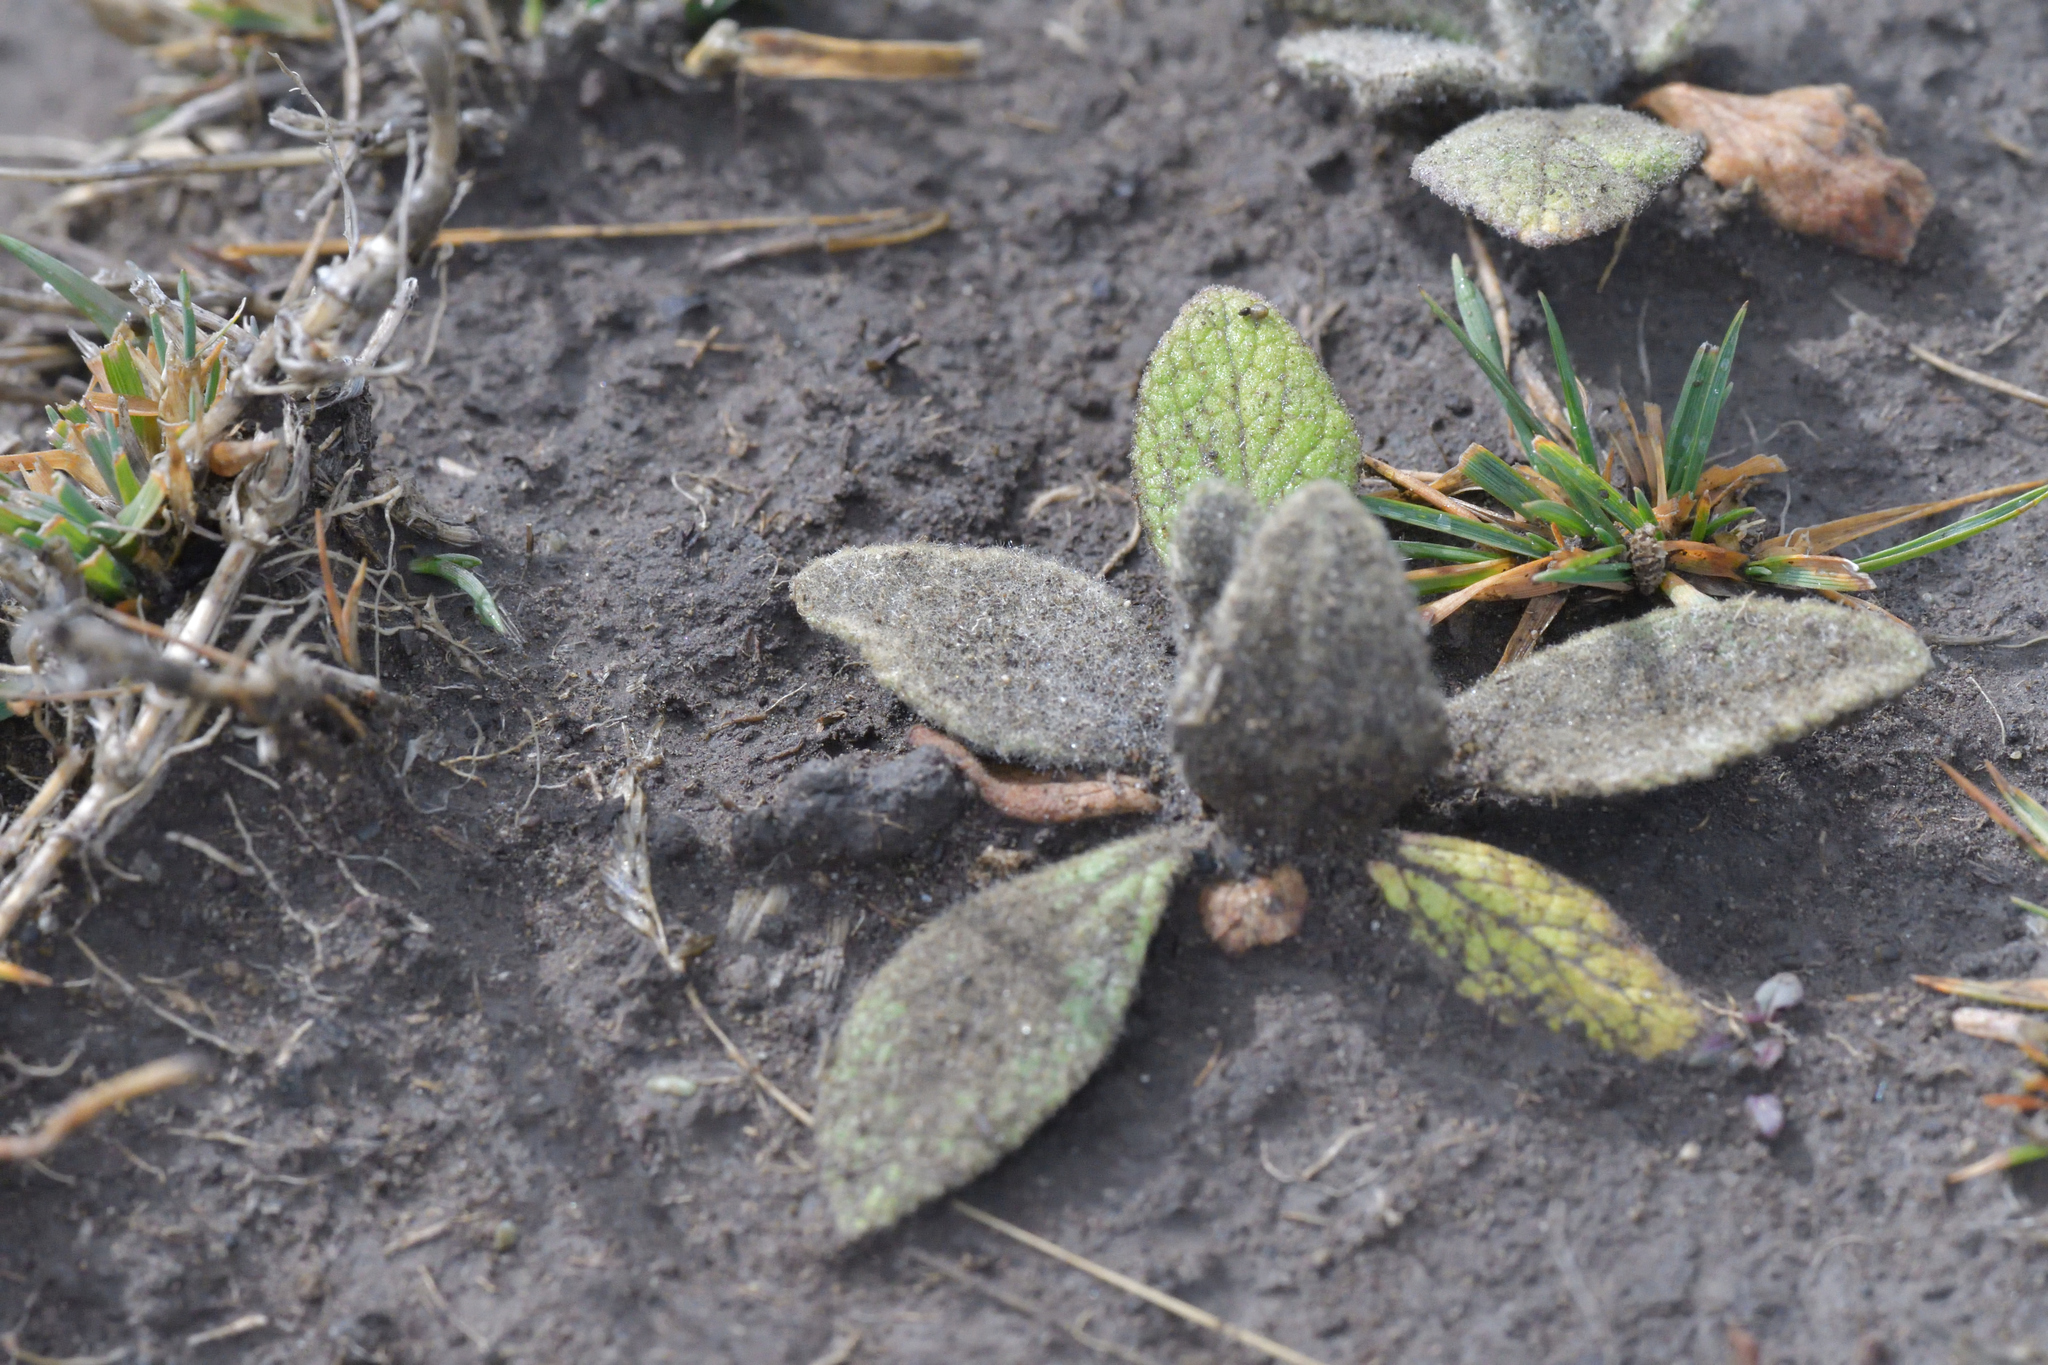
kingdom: Plantae
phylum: Tracheophyta
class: Magnoliopsida
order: Lamiales
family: Scrophulariaceae
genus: Verbascum
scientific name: Verbascum thapsus
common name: Common mullein
